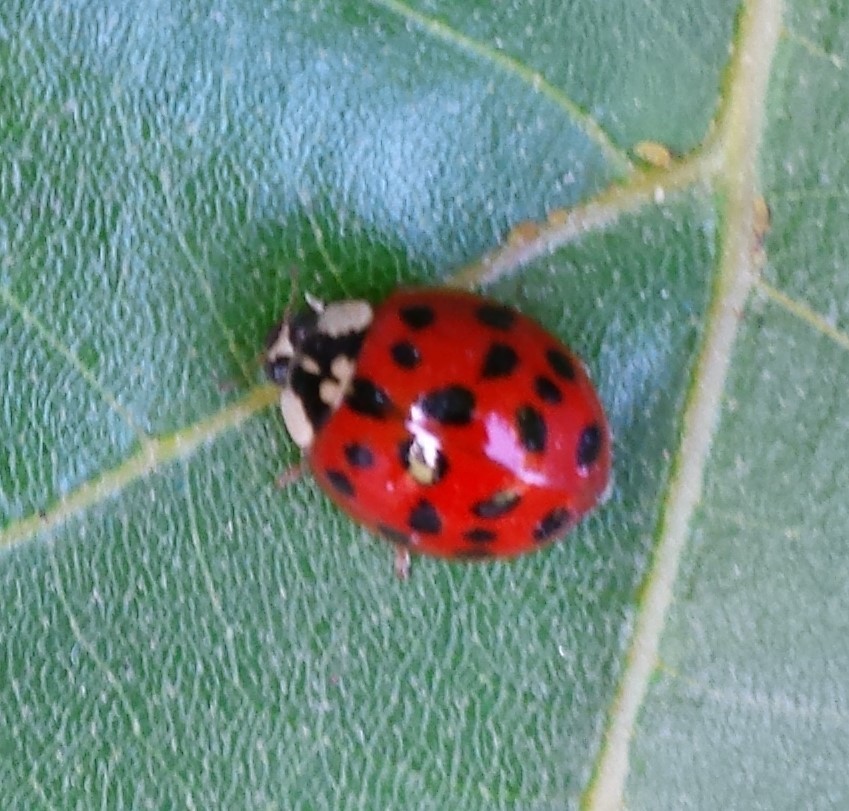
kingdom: Animalia
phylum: Arthropoda
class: Insecta
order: Coleoptera
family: Coccinellidae
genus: Harmonia
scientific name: Harmonia axyridis
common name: Harlequin ladybird
